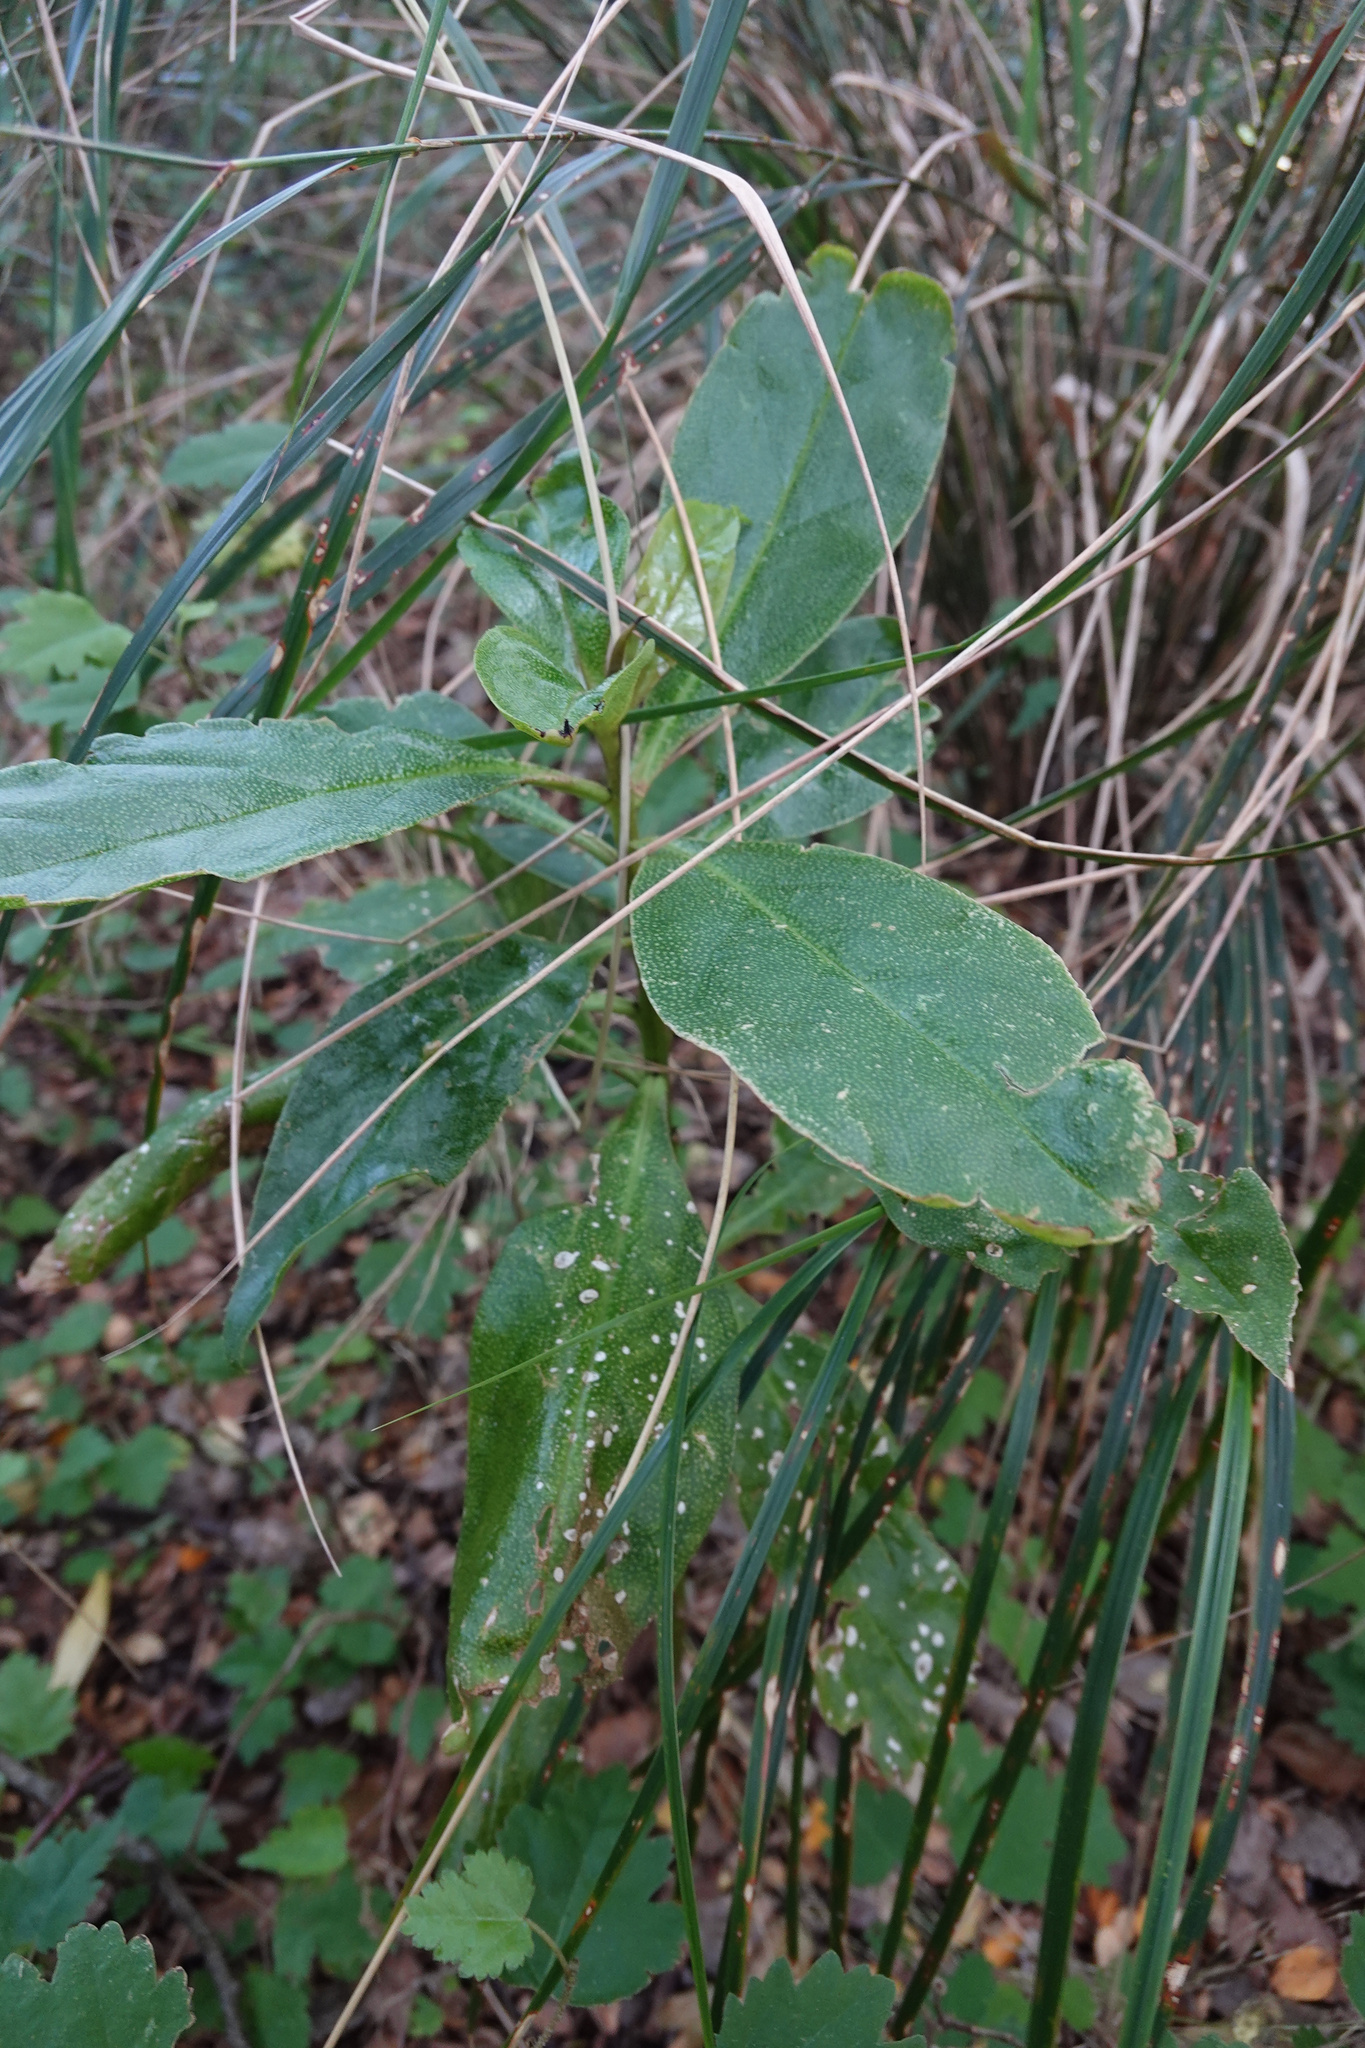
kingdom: Plantae
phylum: Tracheophyta
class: Magnoliopsida
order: Lamiales
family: Scrophulariaceae
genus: Myoporum
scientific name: Myoporum laetum
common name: Ngaio tree
